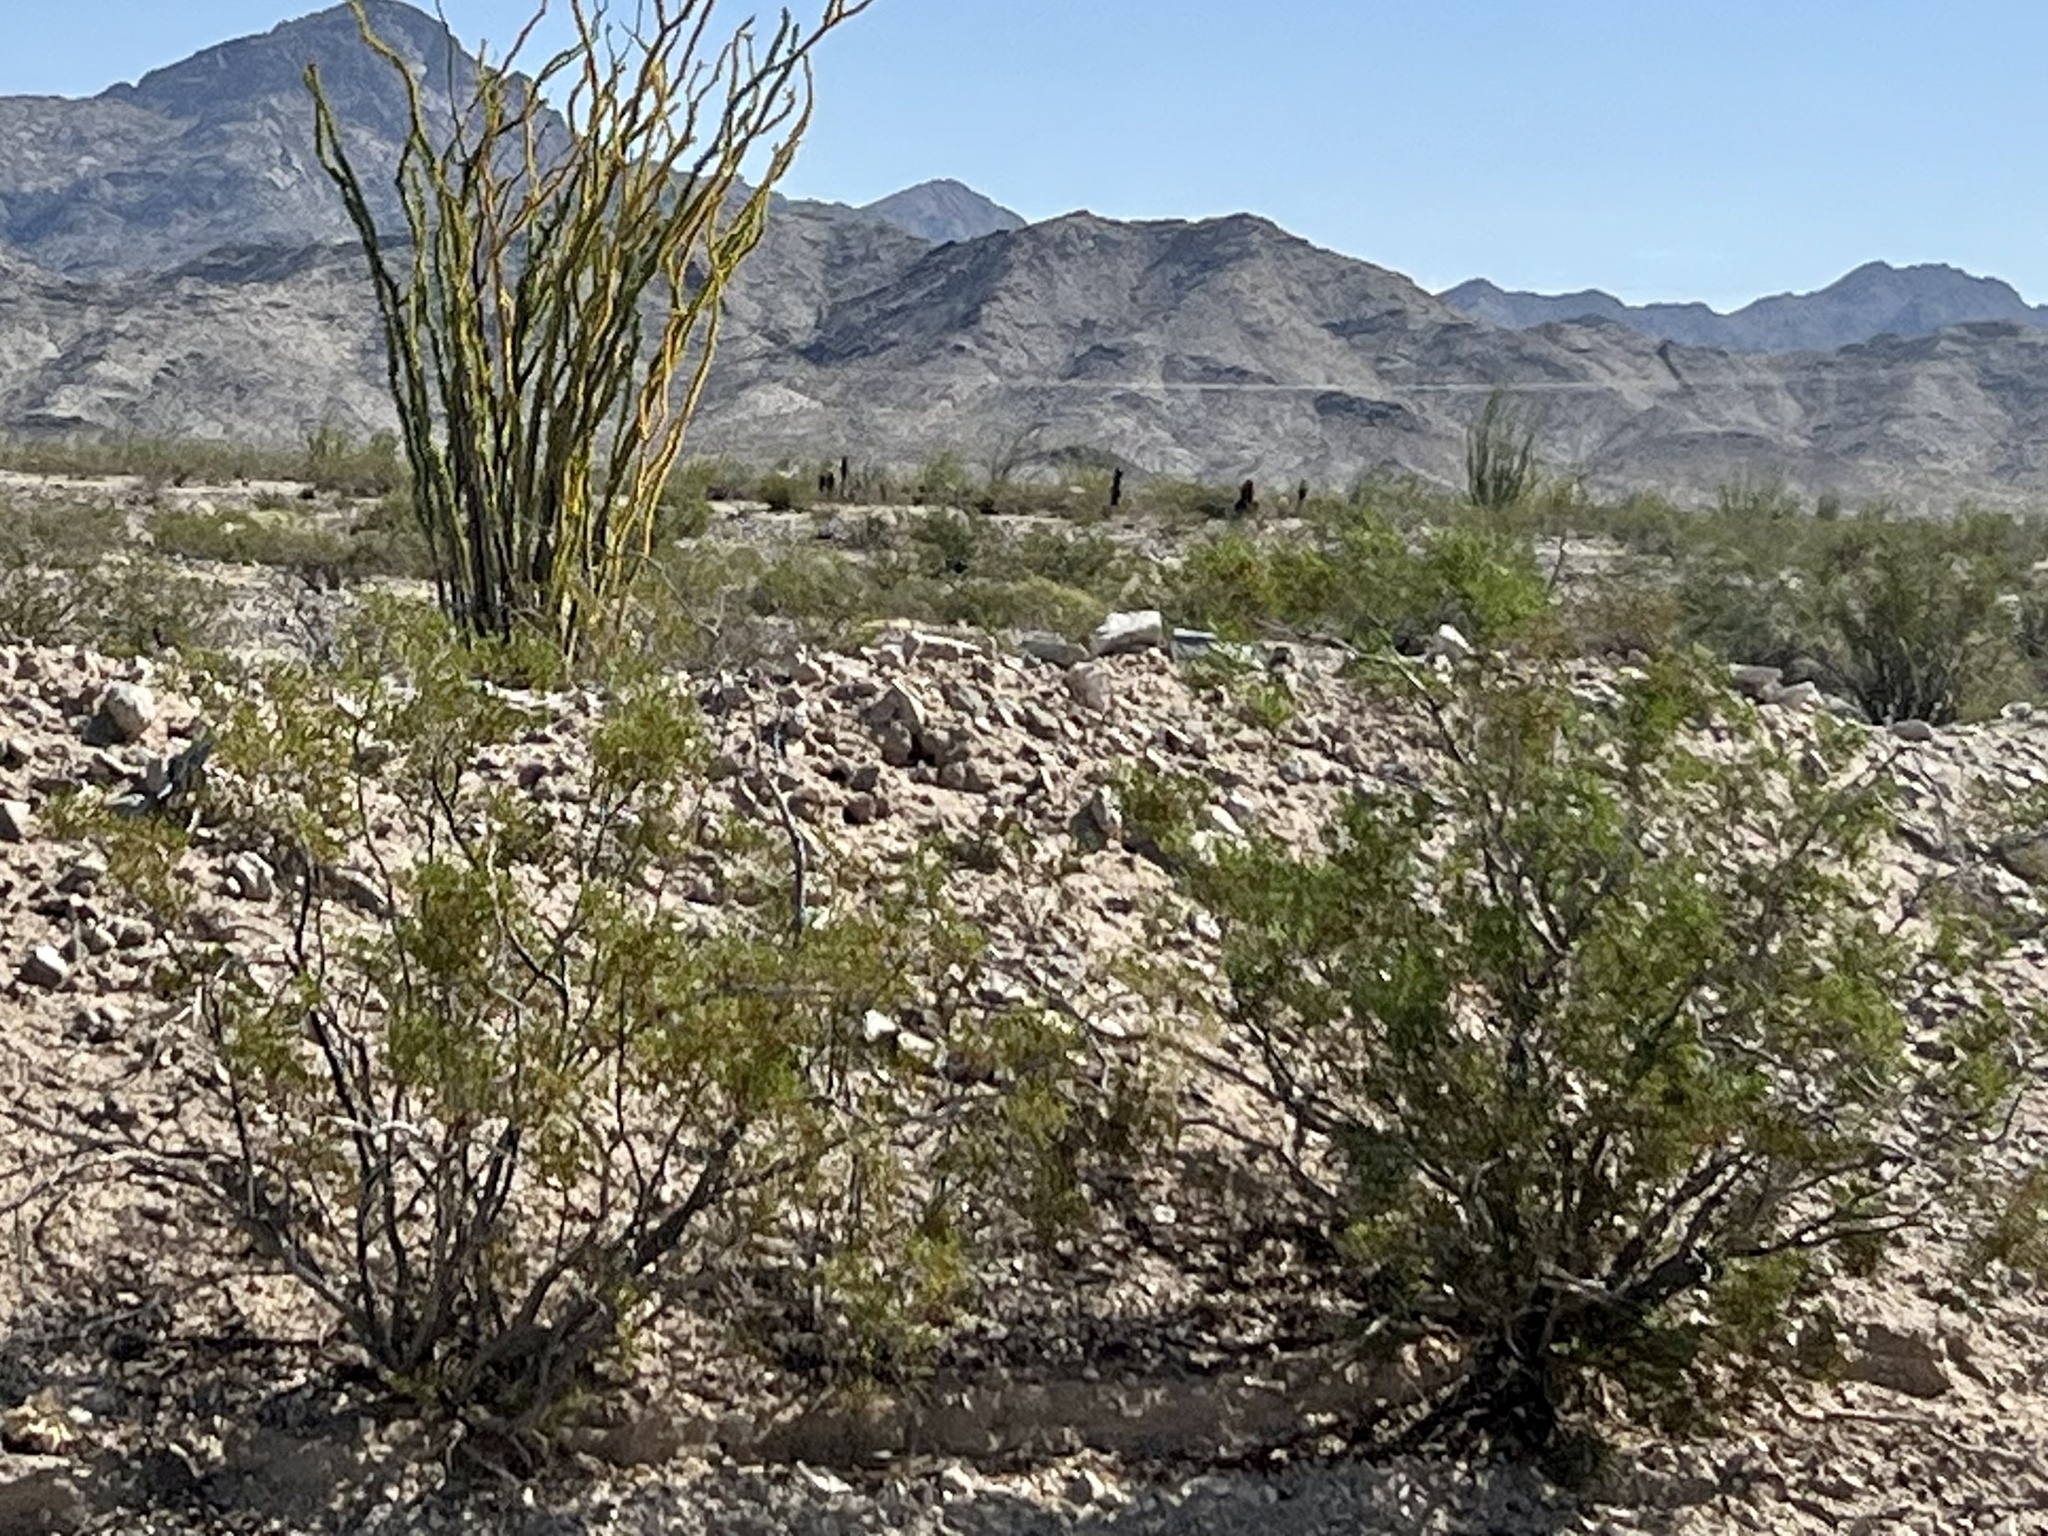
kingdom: Plantae
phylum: Tracheophyta
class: Magnoliopsida
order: Zygophyllales
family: Zygophyllaceae
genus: Larrea
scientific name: Larrea tridentata
